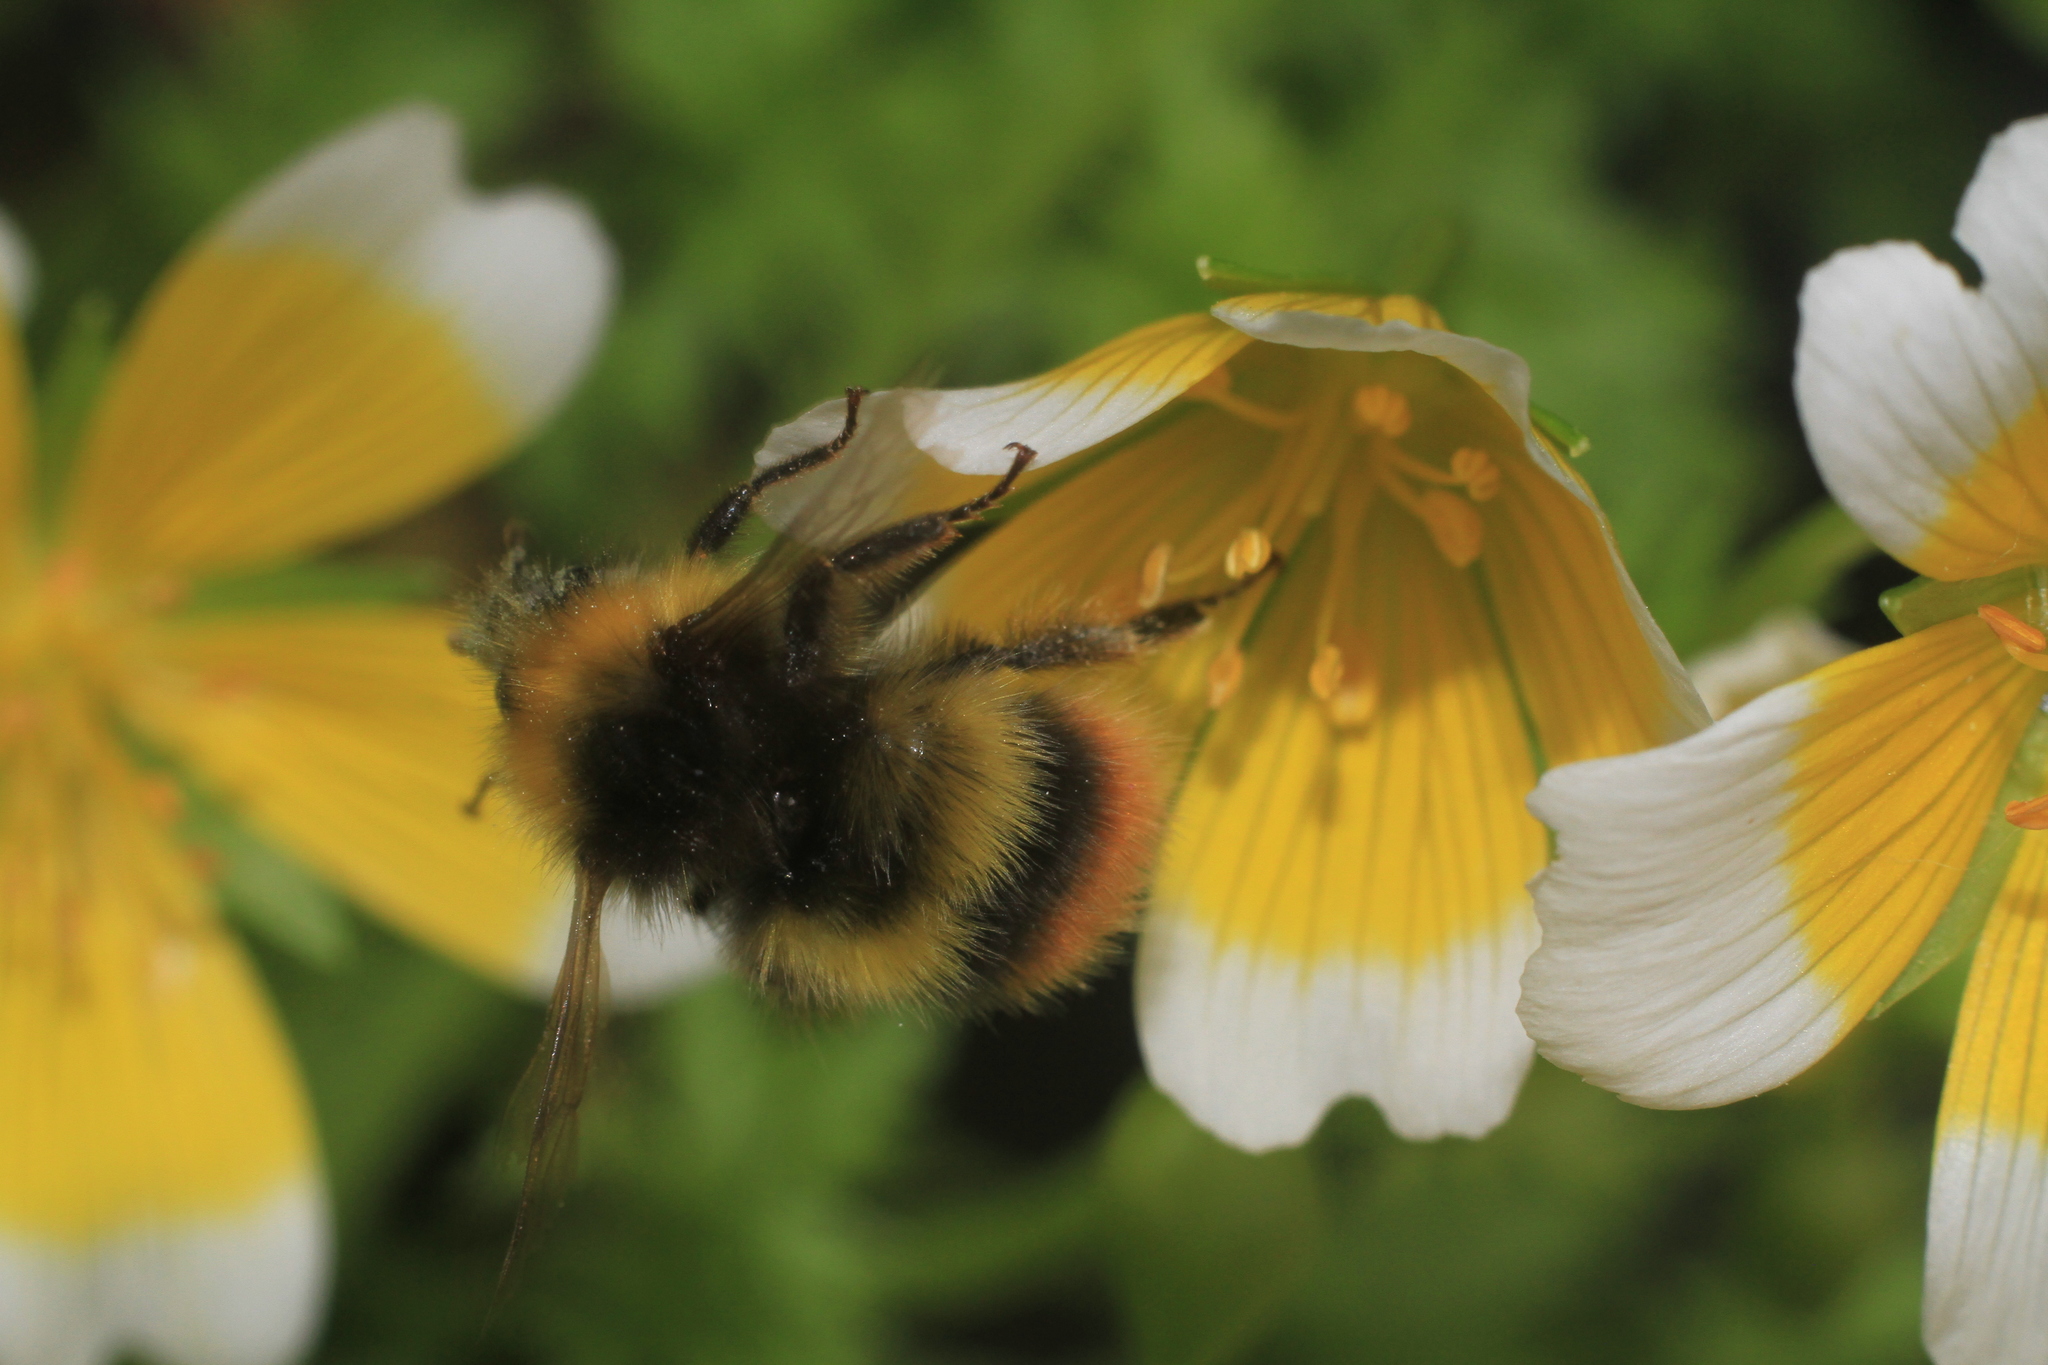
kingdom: Animalia
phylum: Arthropoda
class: Insecta
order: Hymenoptera
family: Apidae
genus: Bombus
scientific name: Bombus pratorum
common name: Early humble-bee
